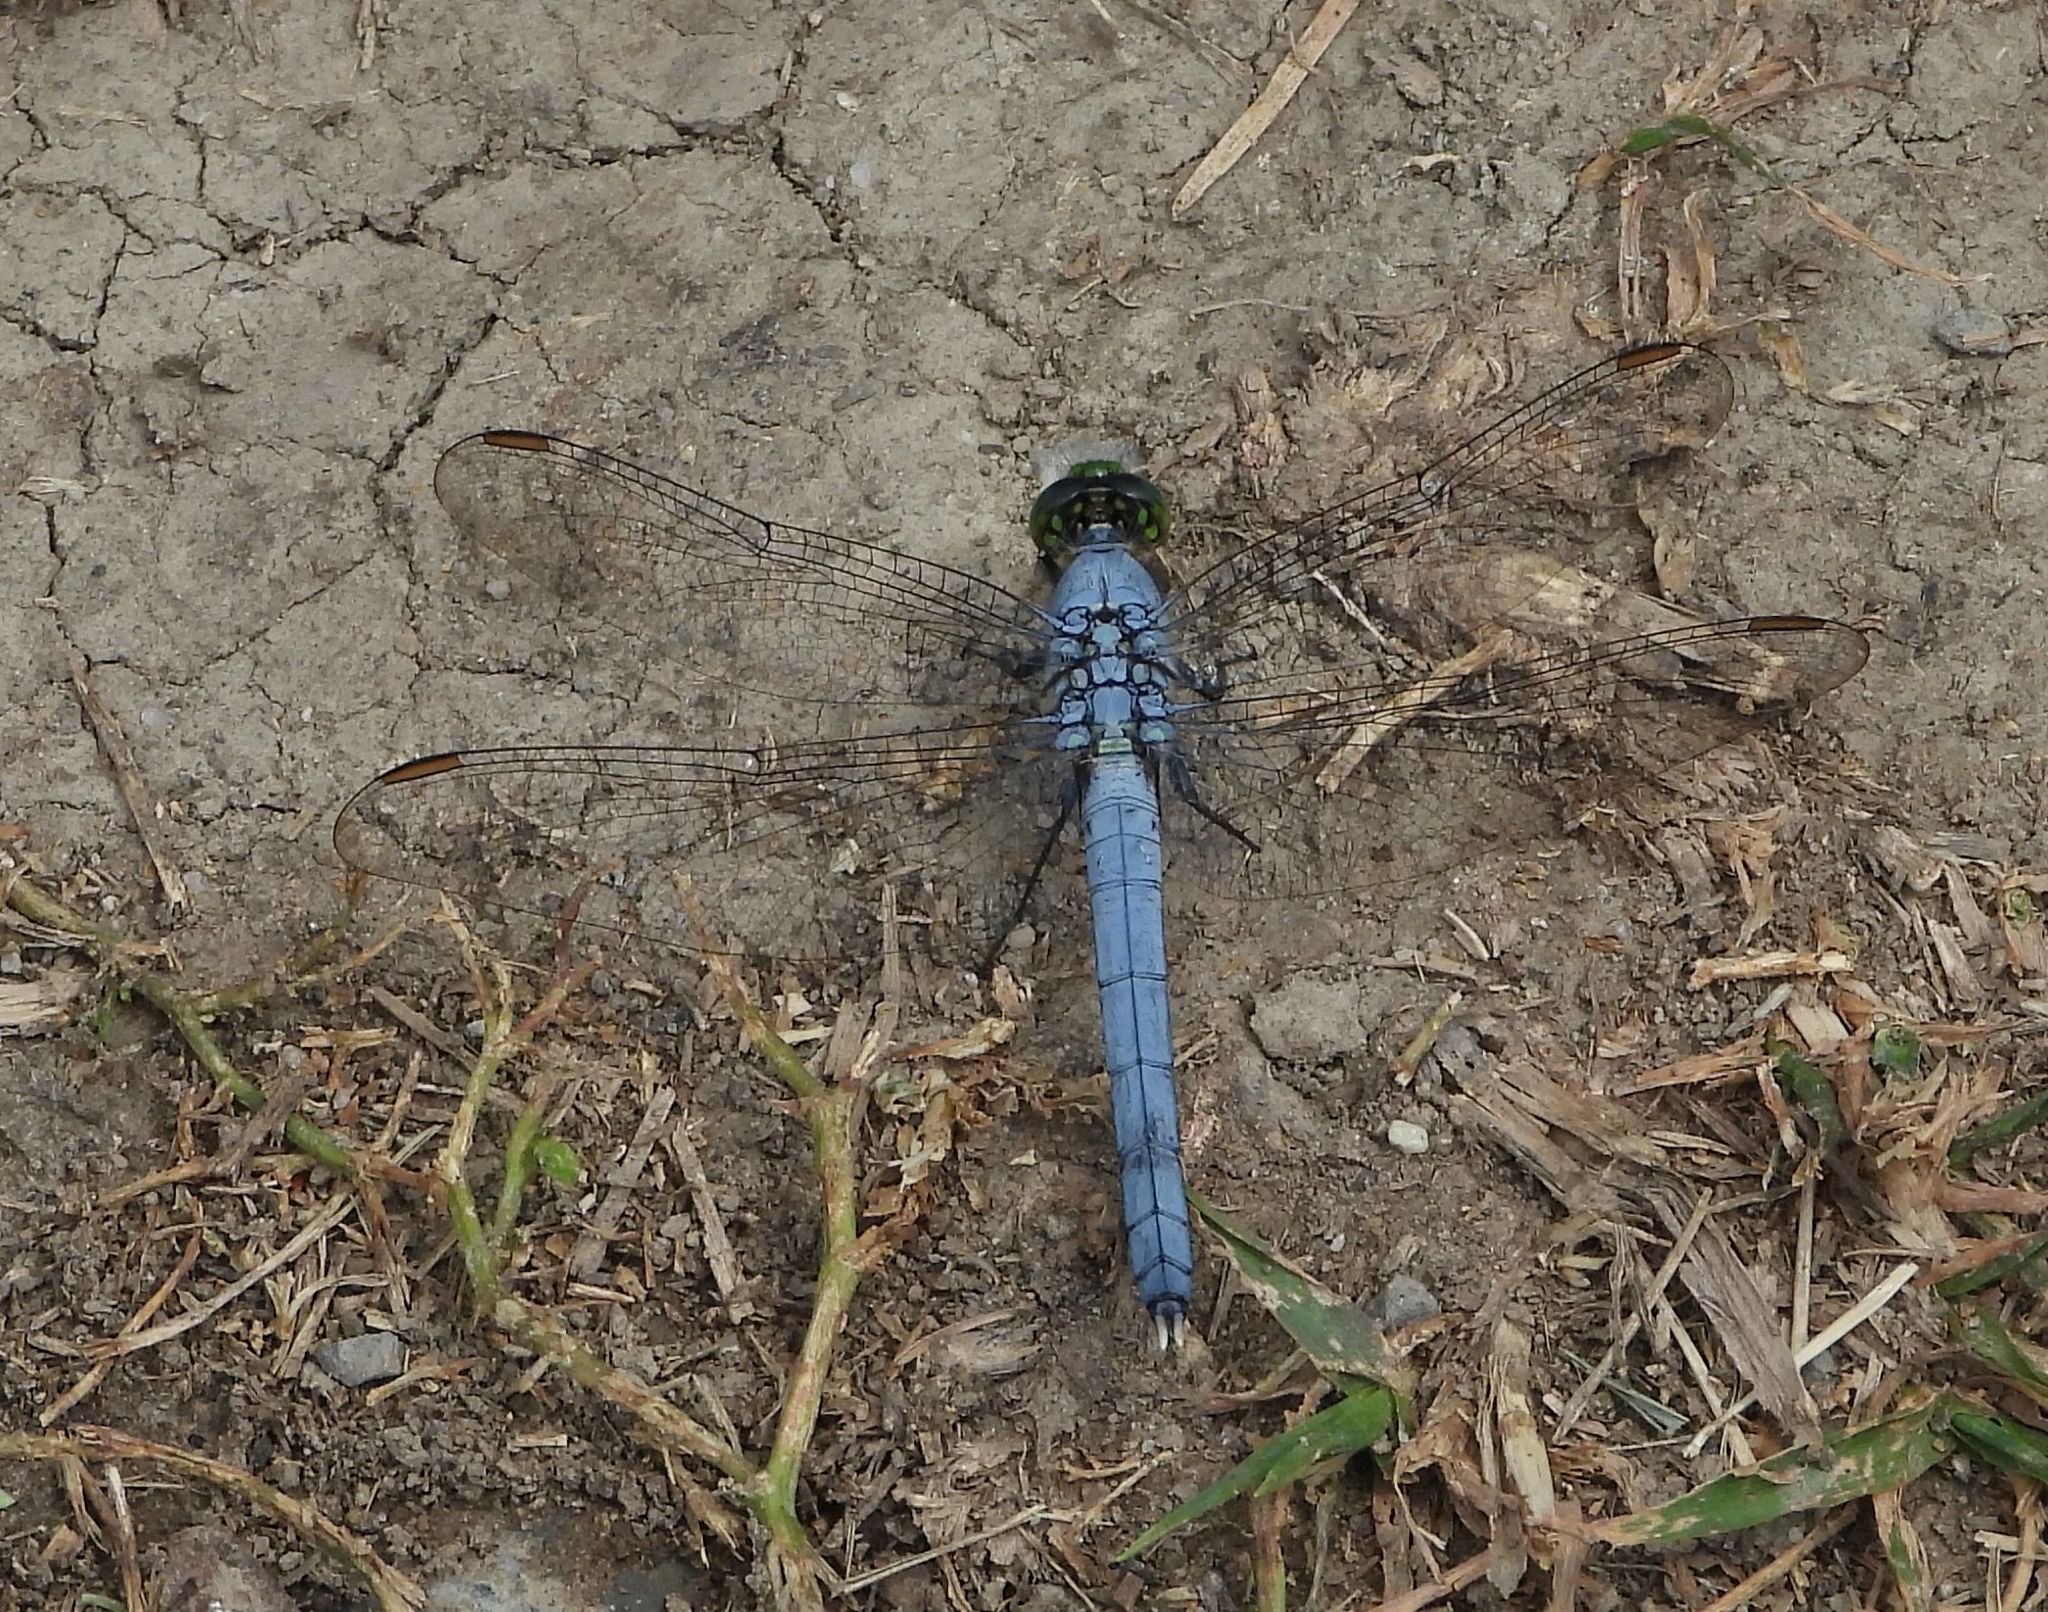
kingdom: Animalia
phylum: Arthropoda
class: Insecta
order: Odonata
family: Libellulidae
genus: Erythemis
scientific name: Erythemis simplicicollis
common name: Eastern pondhawk
